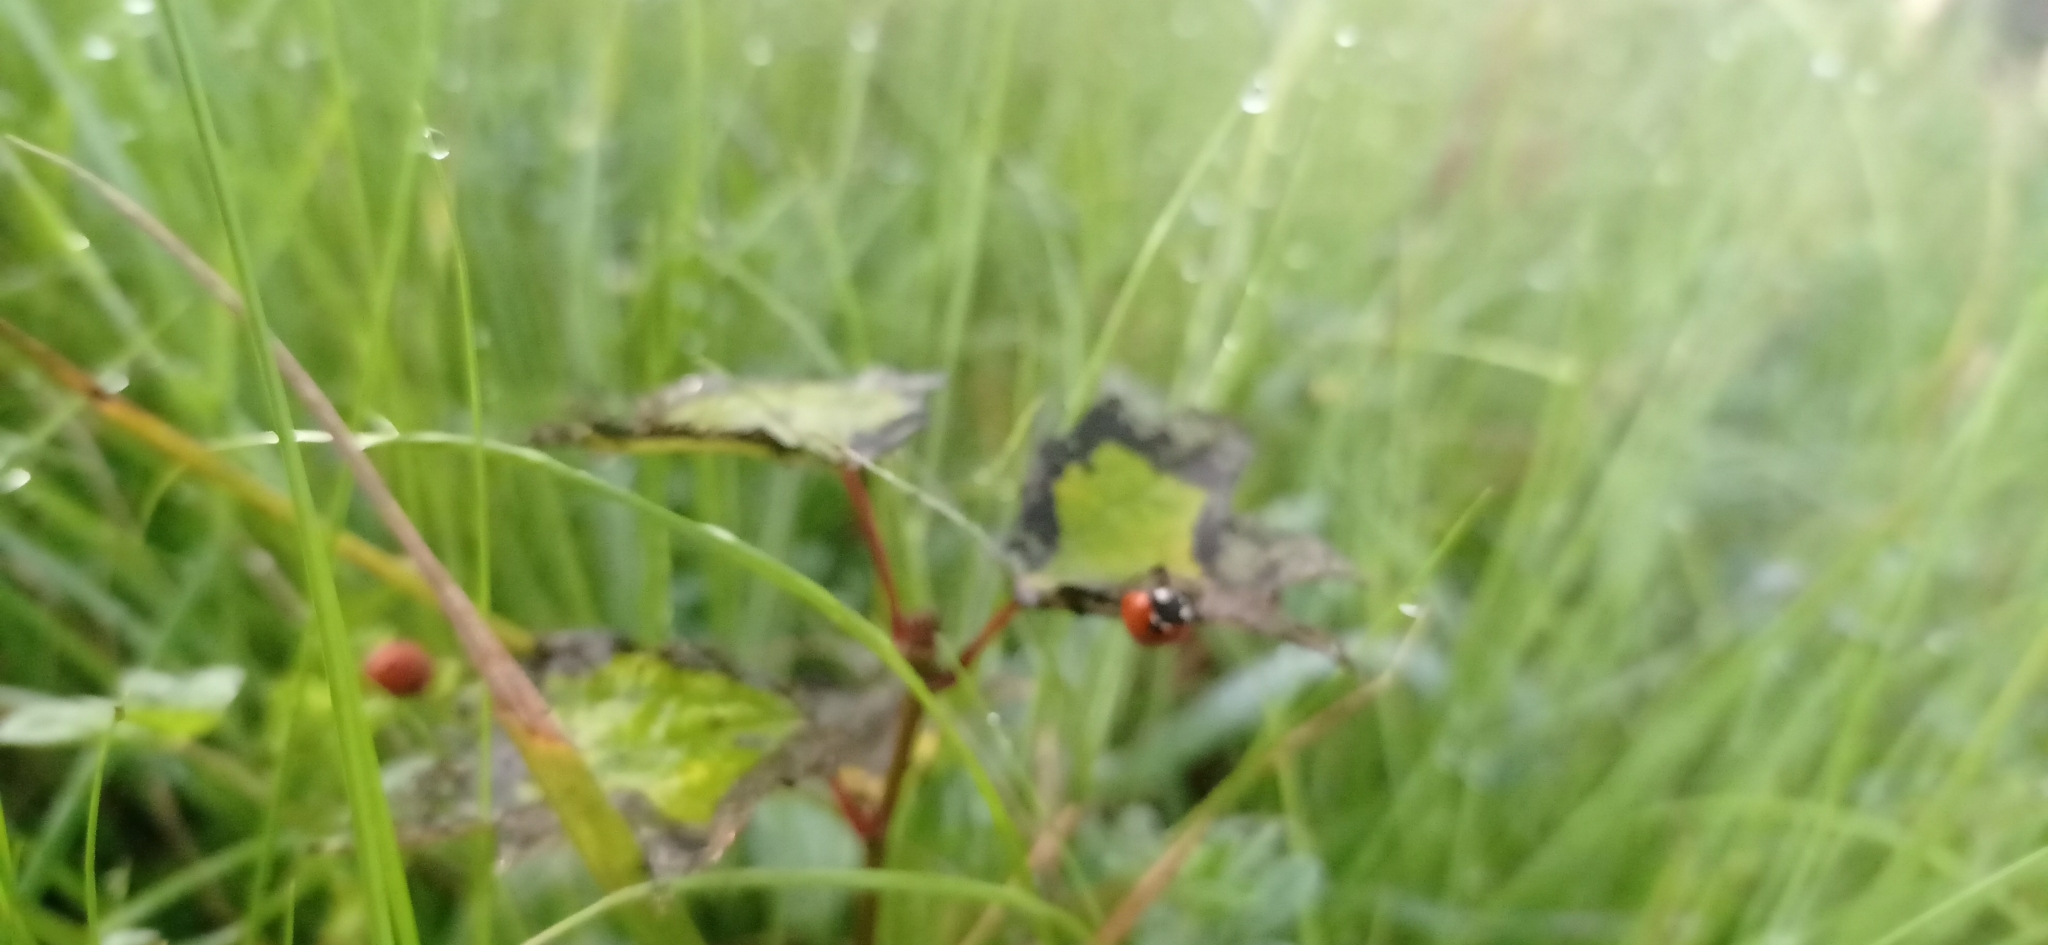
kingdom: Animalia
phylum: Arthropoda
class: Insecta
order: Coleoptera
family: Coccinellidae
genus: Coccinella
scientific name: Coccinella septempunctata
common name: Sevenspotted lady beetle
